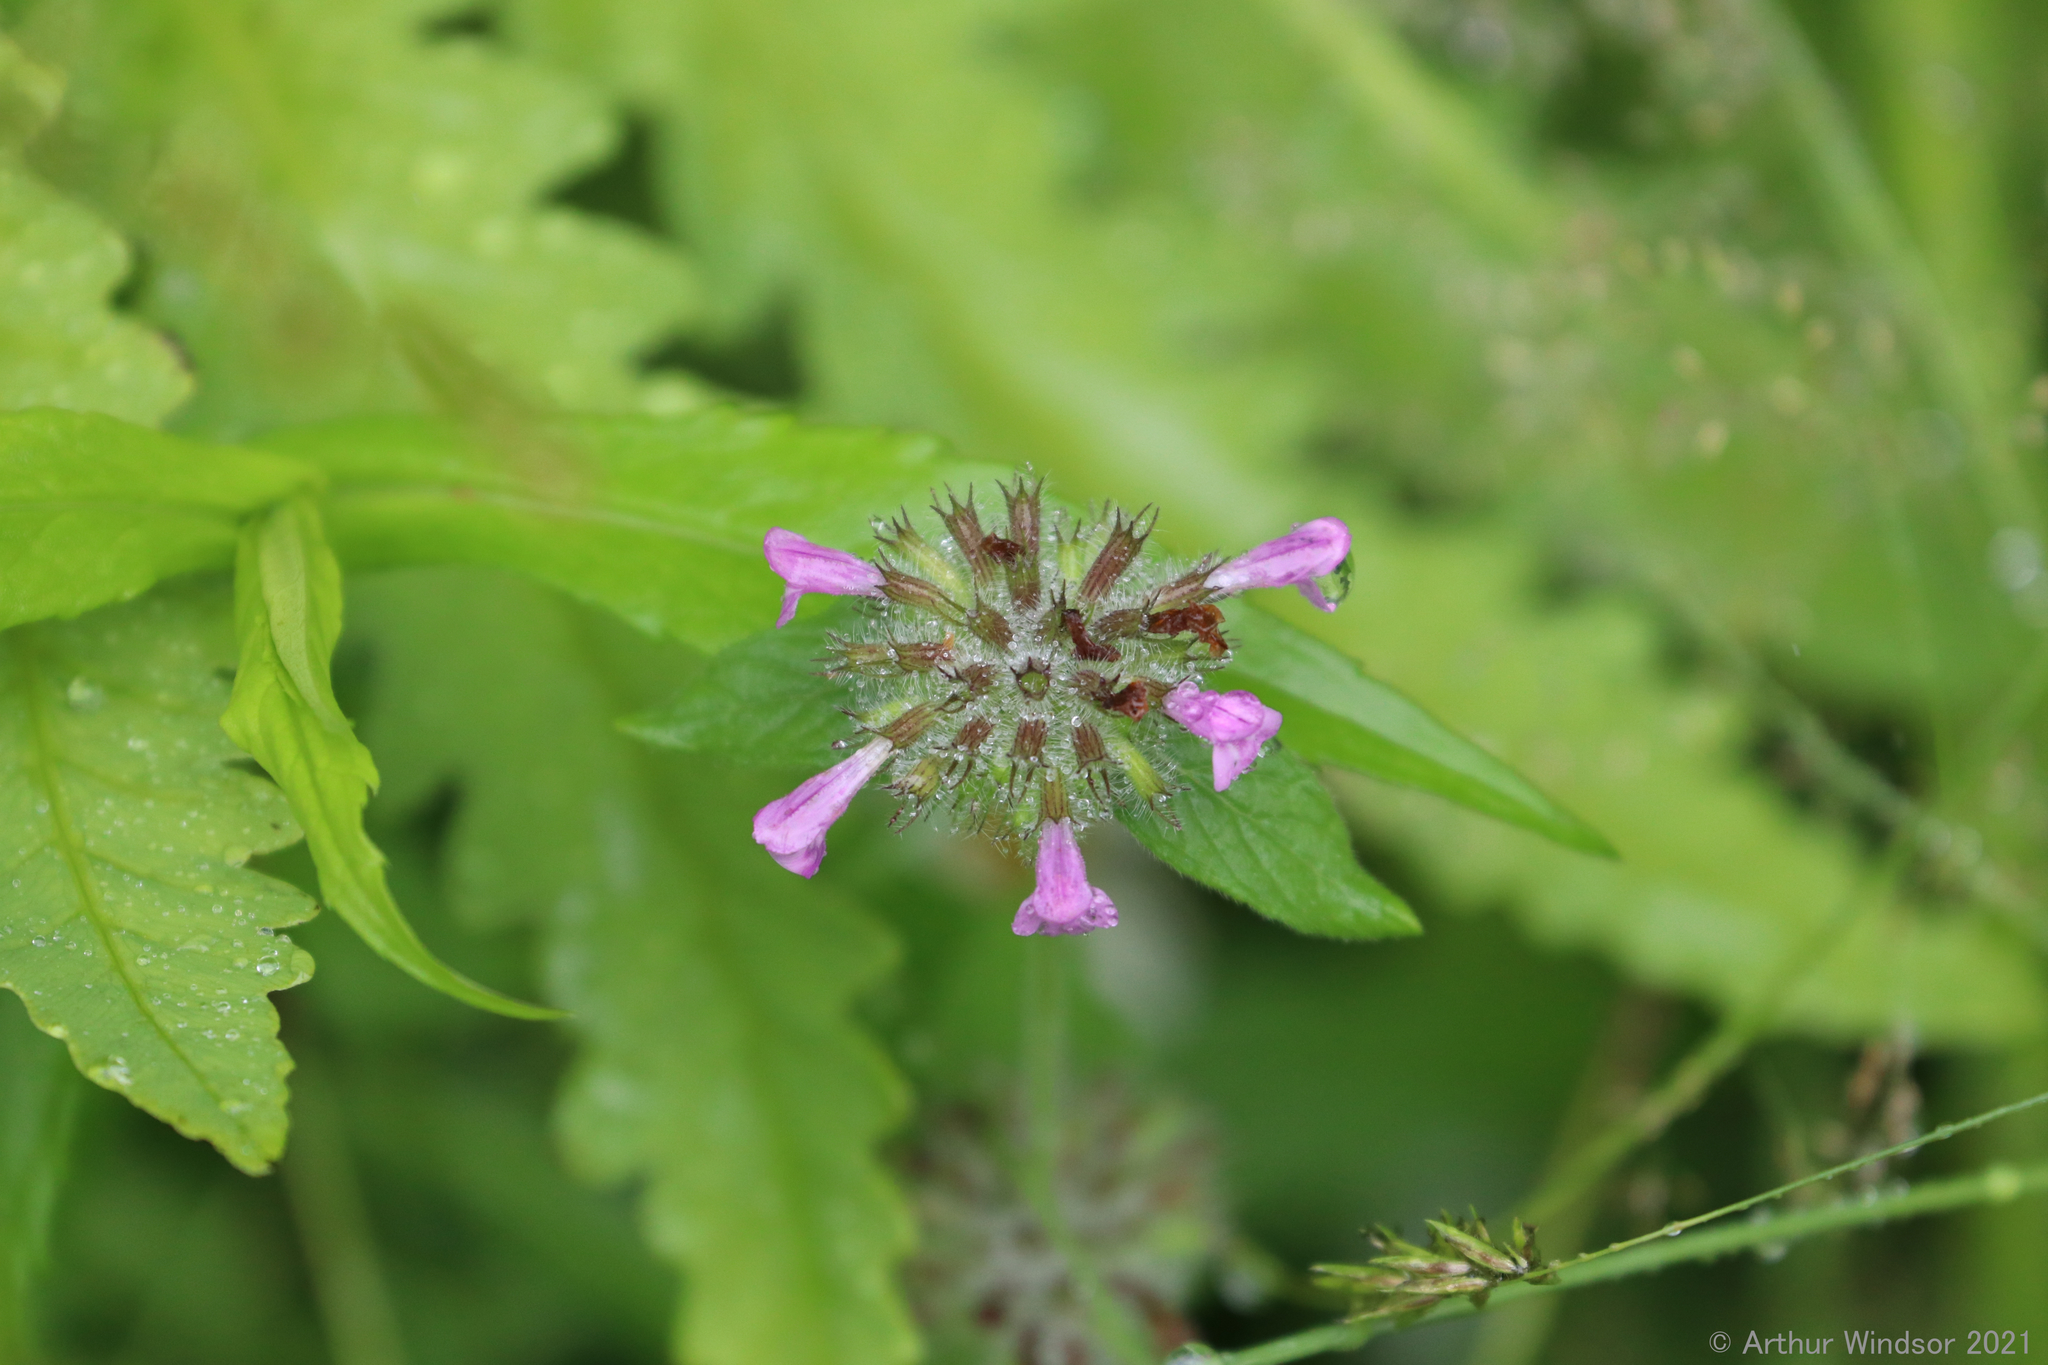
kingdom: Plantae
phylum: Tracheophyta
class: Magnoliopsida
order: Lamiales
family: Lamiaceae
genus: Clinopodium
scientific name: Clinopodium vulgare
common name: Wild basil
